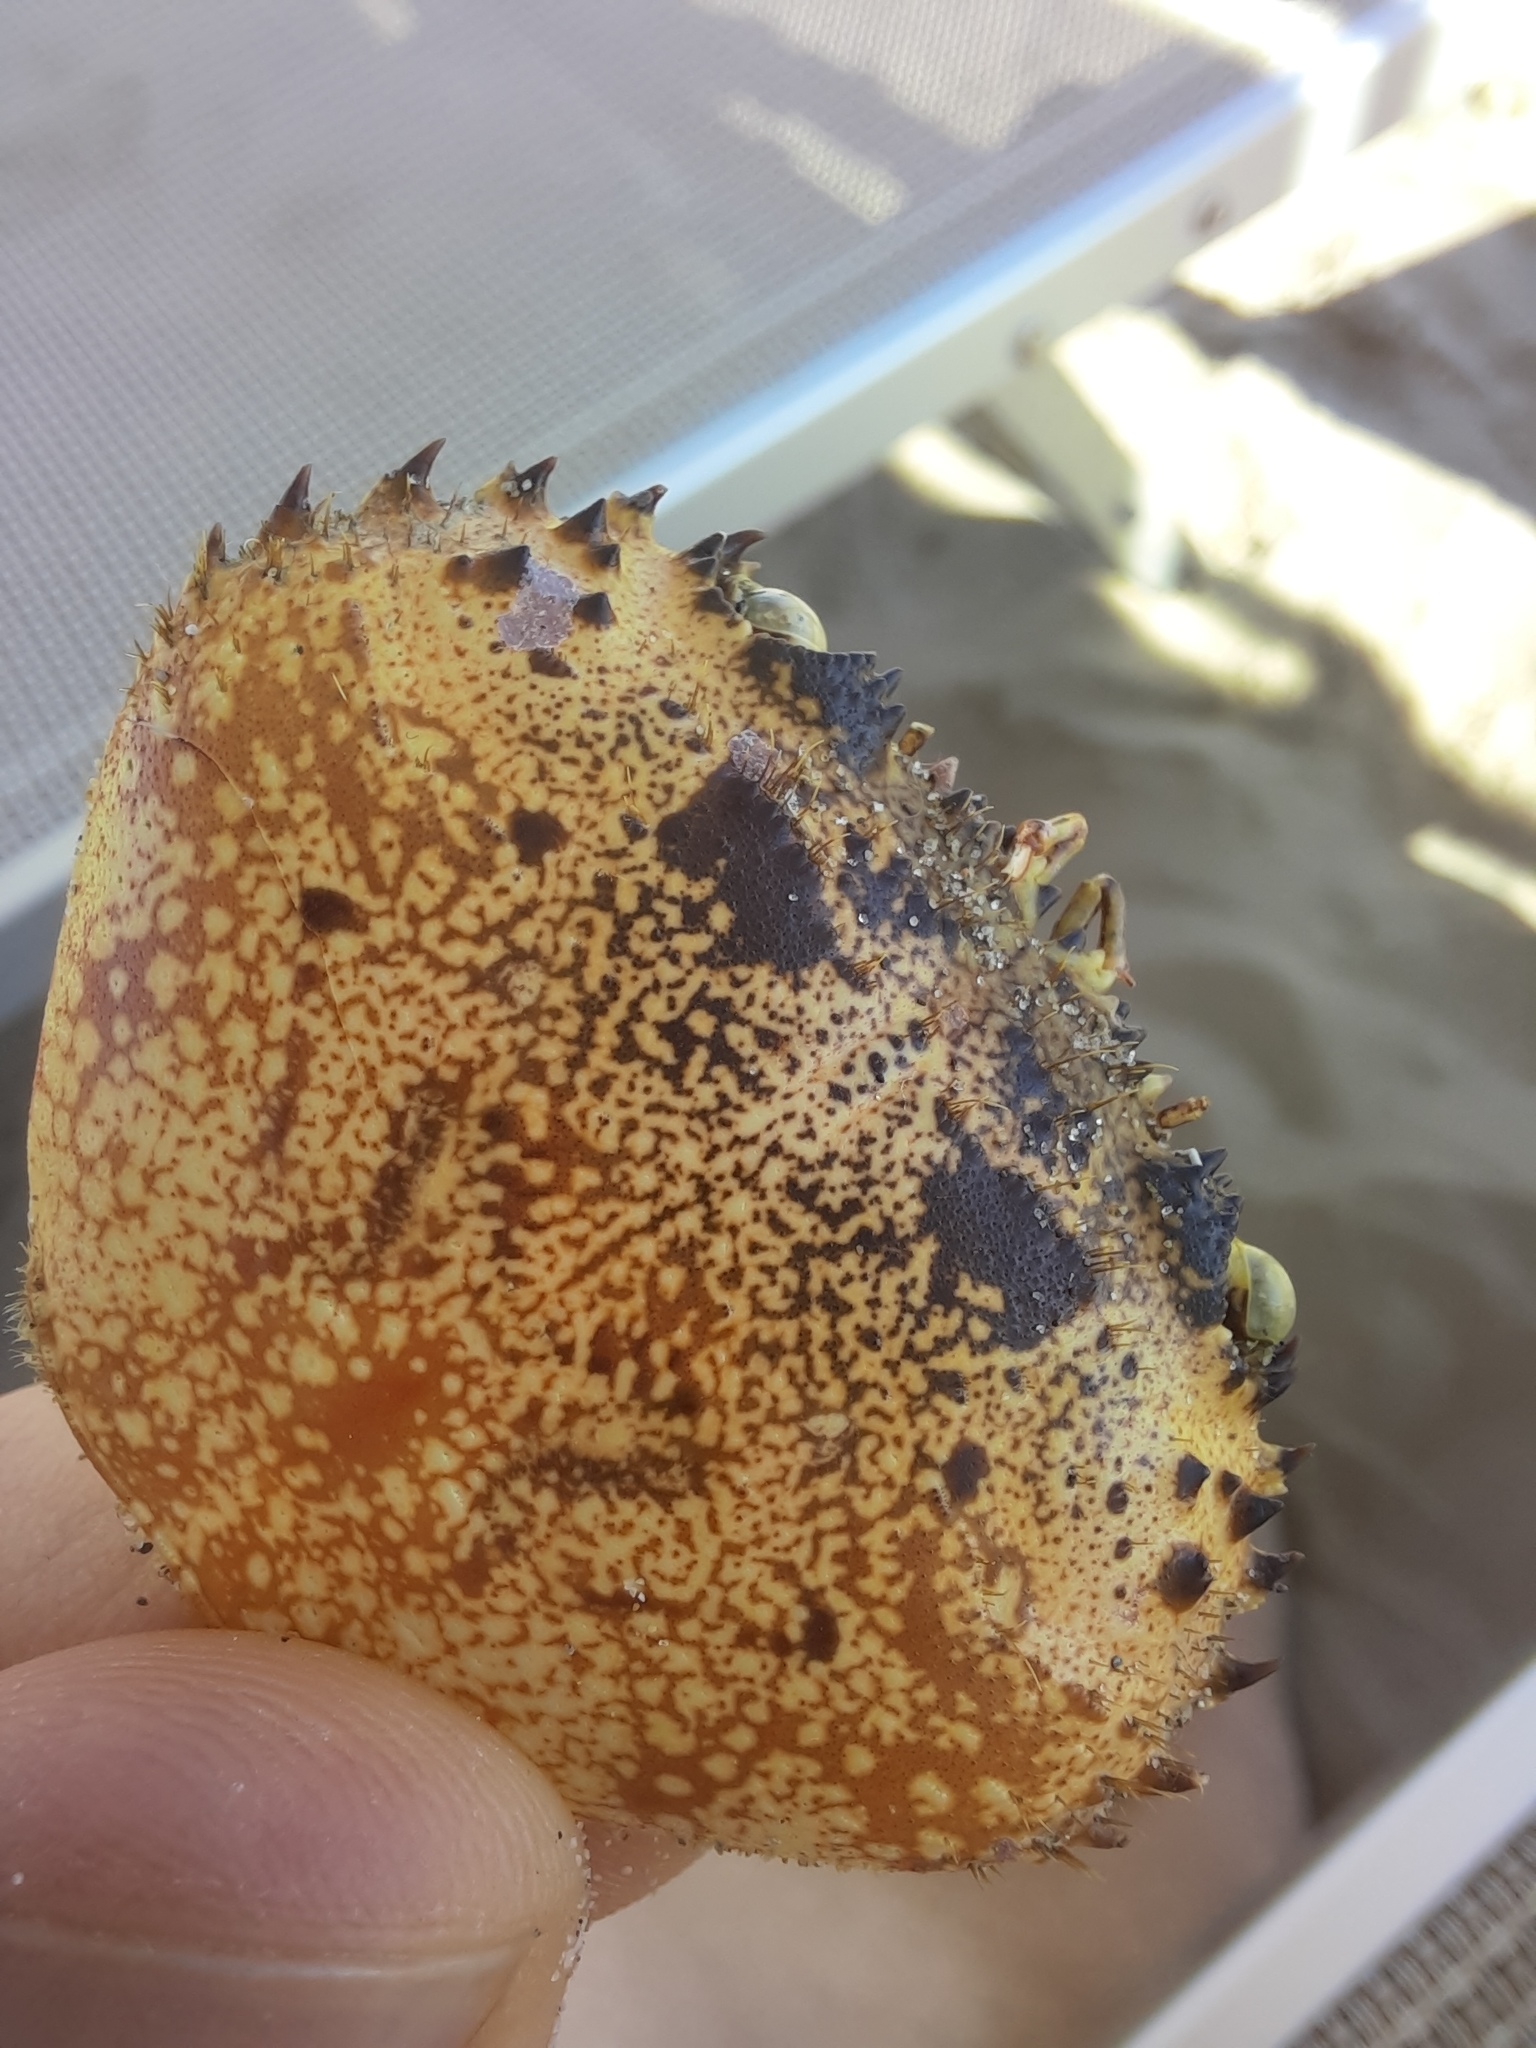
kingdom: Animalia
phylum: Arthropoda
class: Malacostraca
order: Decapoda
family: Eriphiidae
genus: Eriphia
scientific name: Eriphia verrucosa
